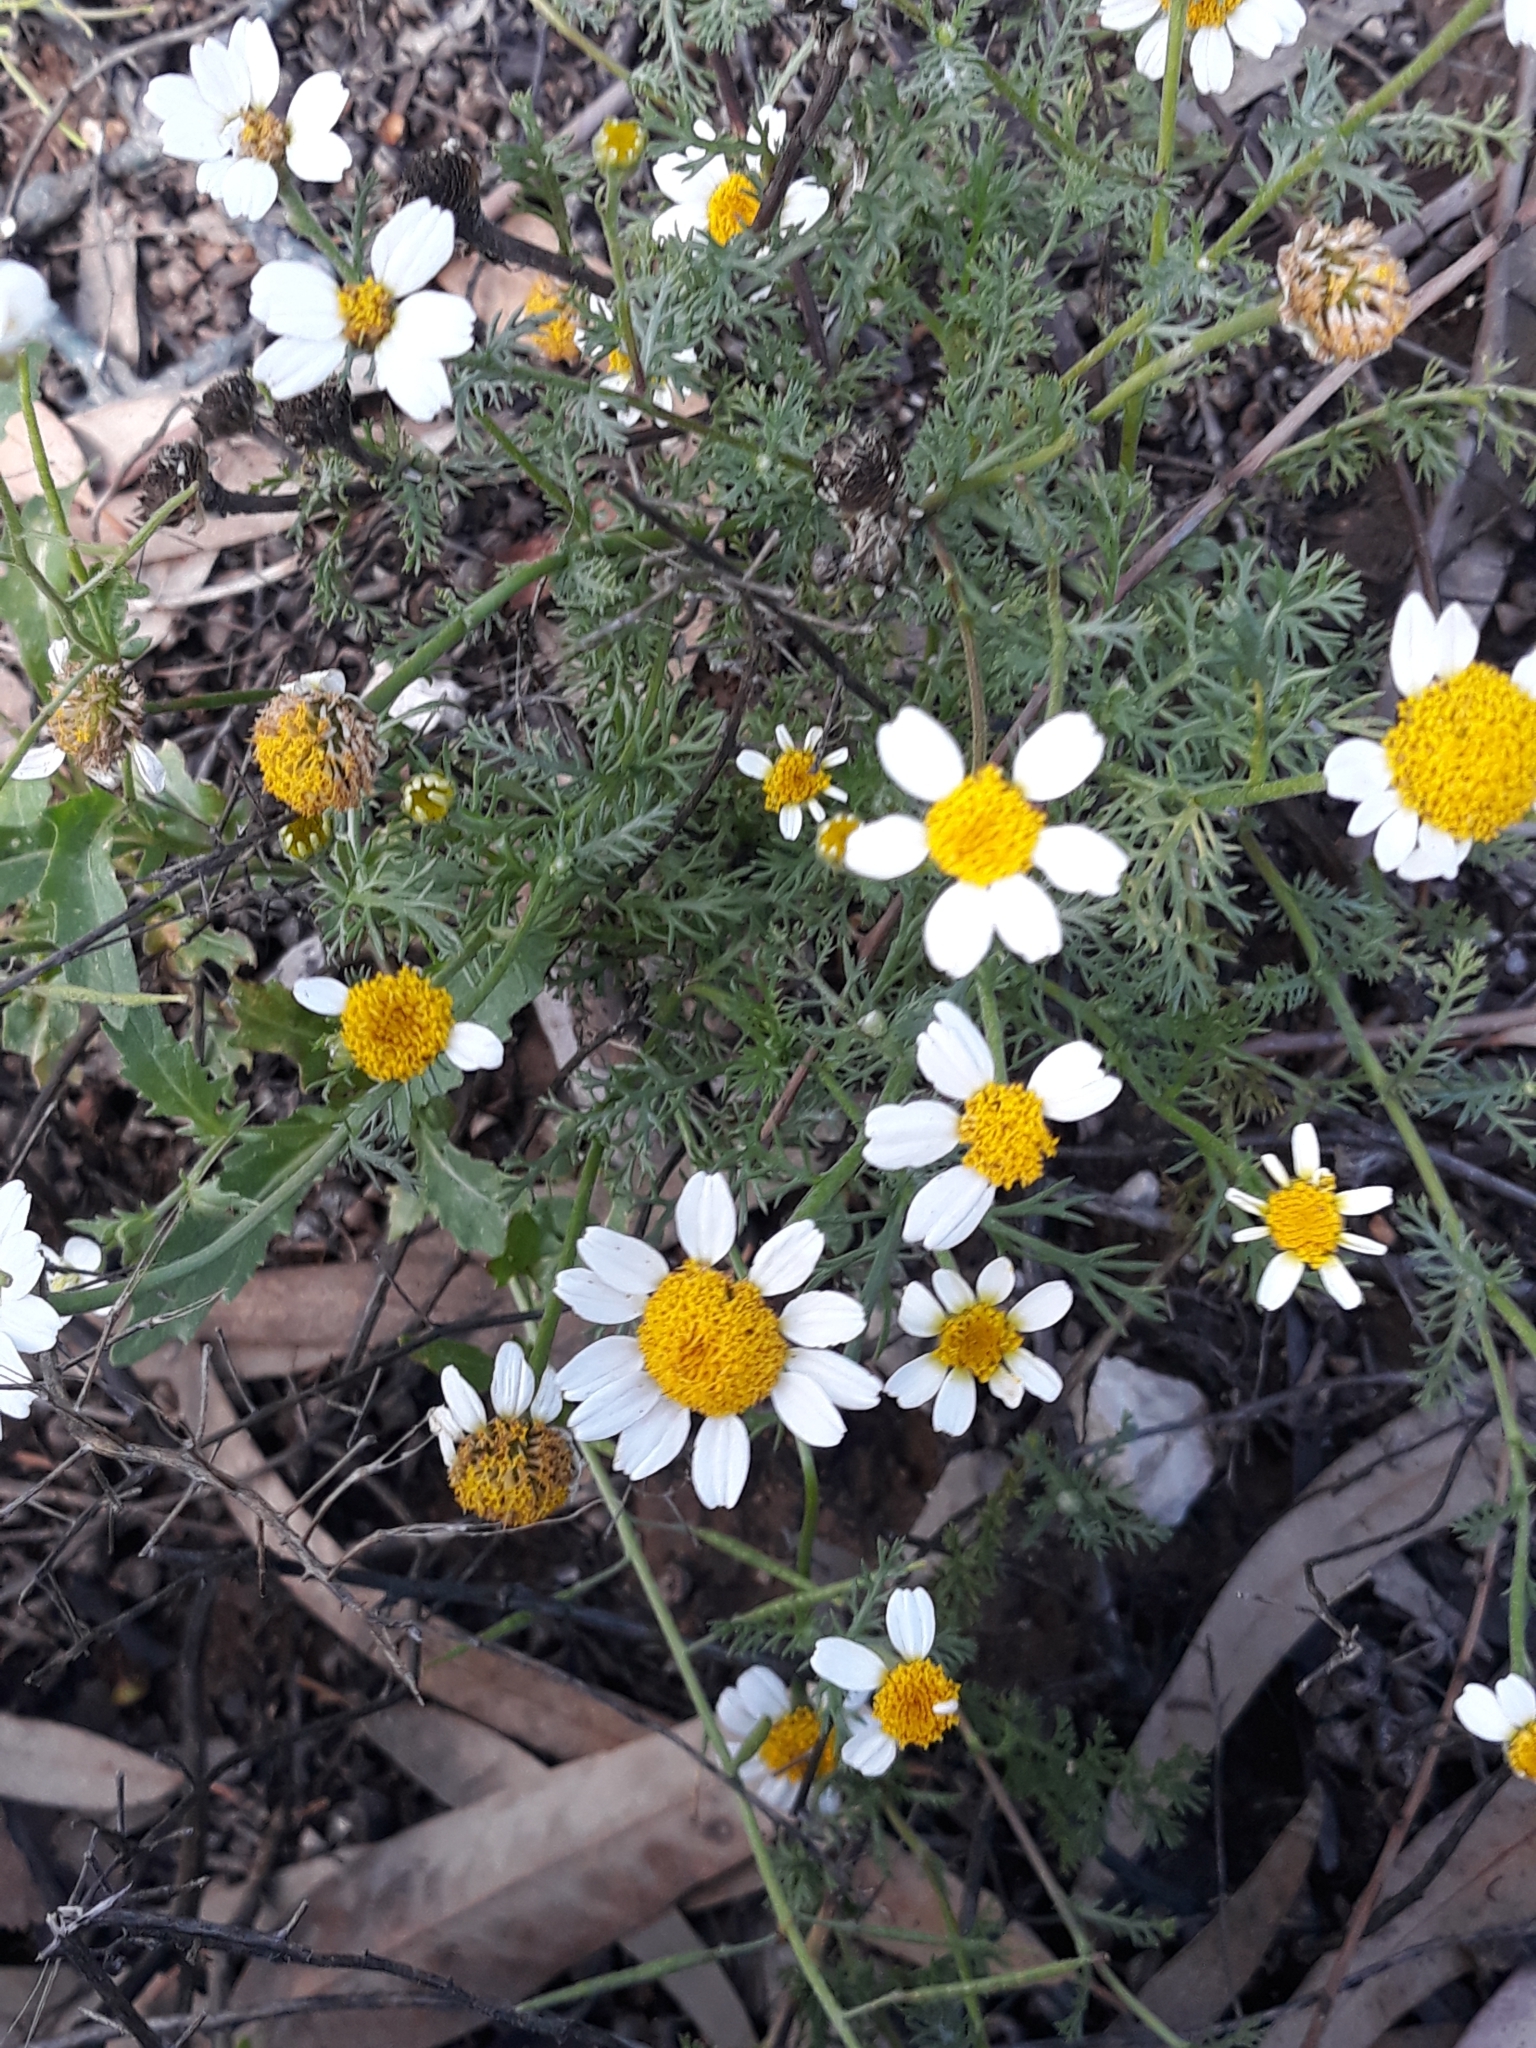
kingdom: Plantae
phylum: Tracheophyta
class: Magnoliopsida
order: Asterales
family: Asteraceae
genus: Anacyclus
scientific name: Anacyclus clavatus
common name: Whitebuttons
